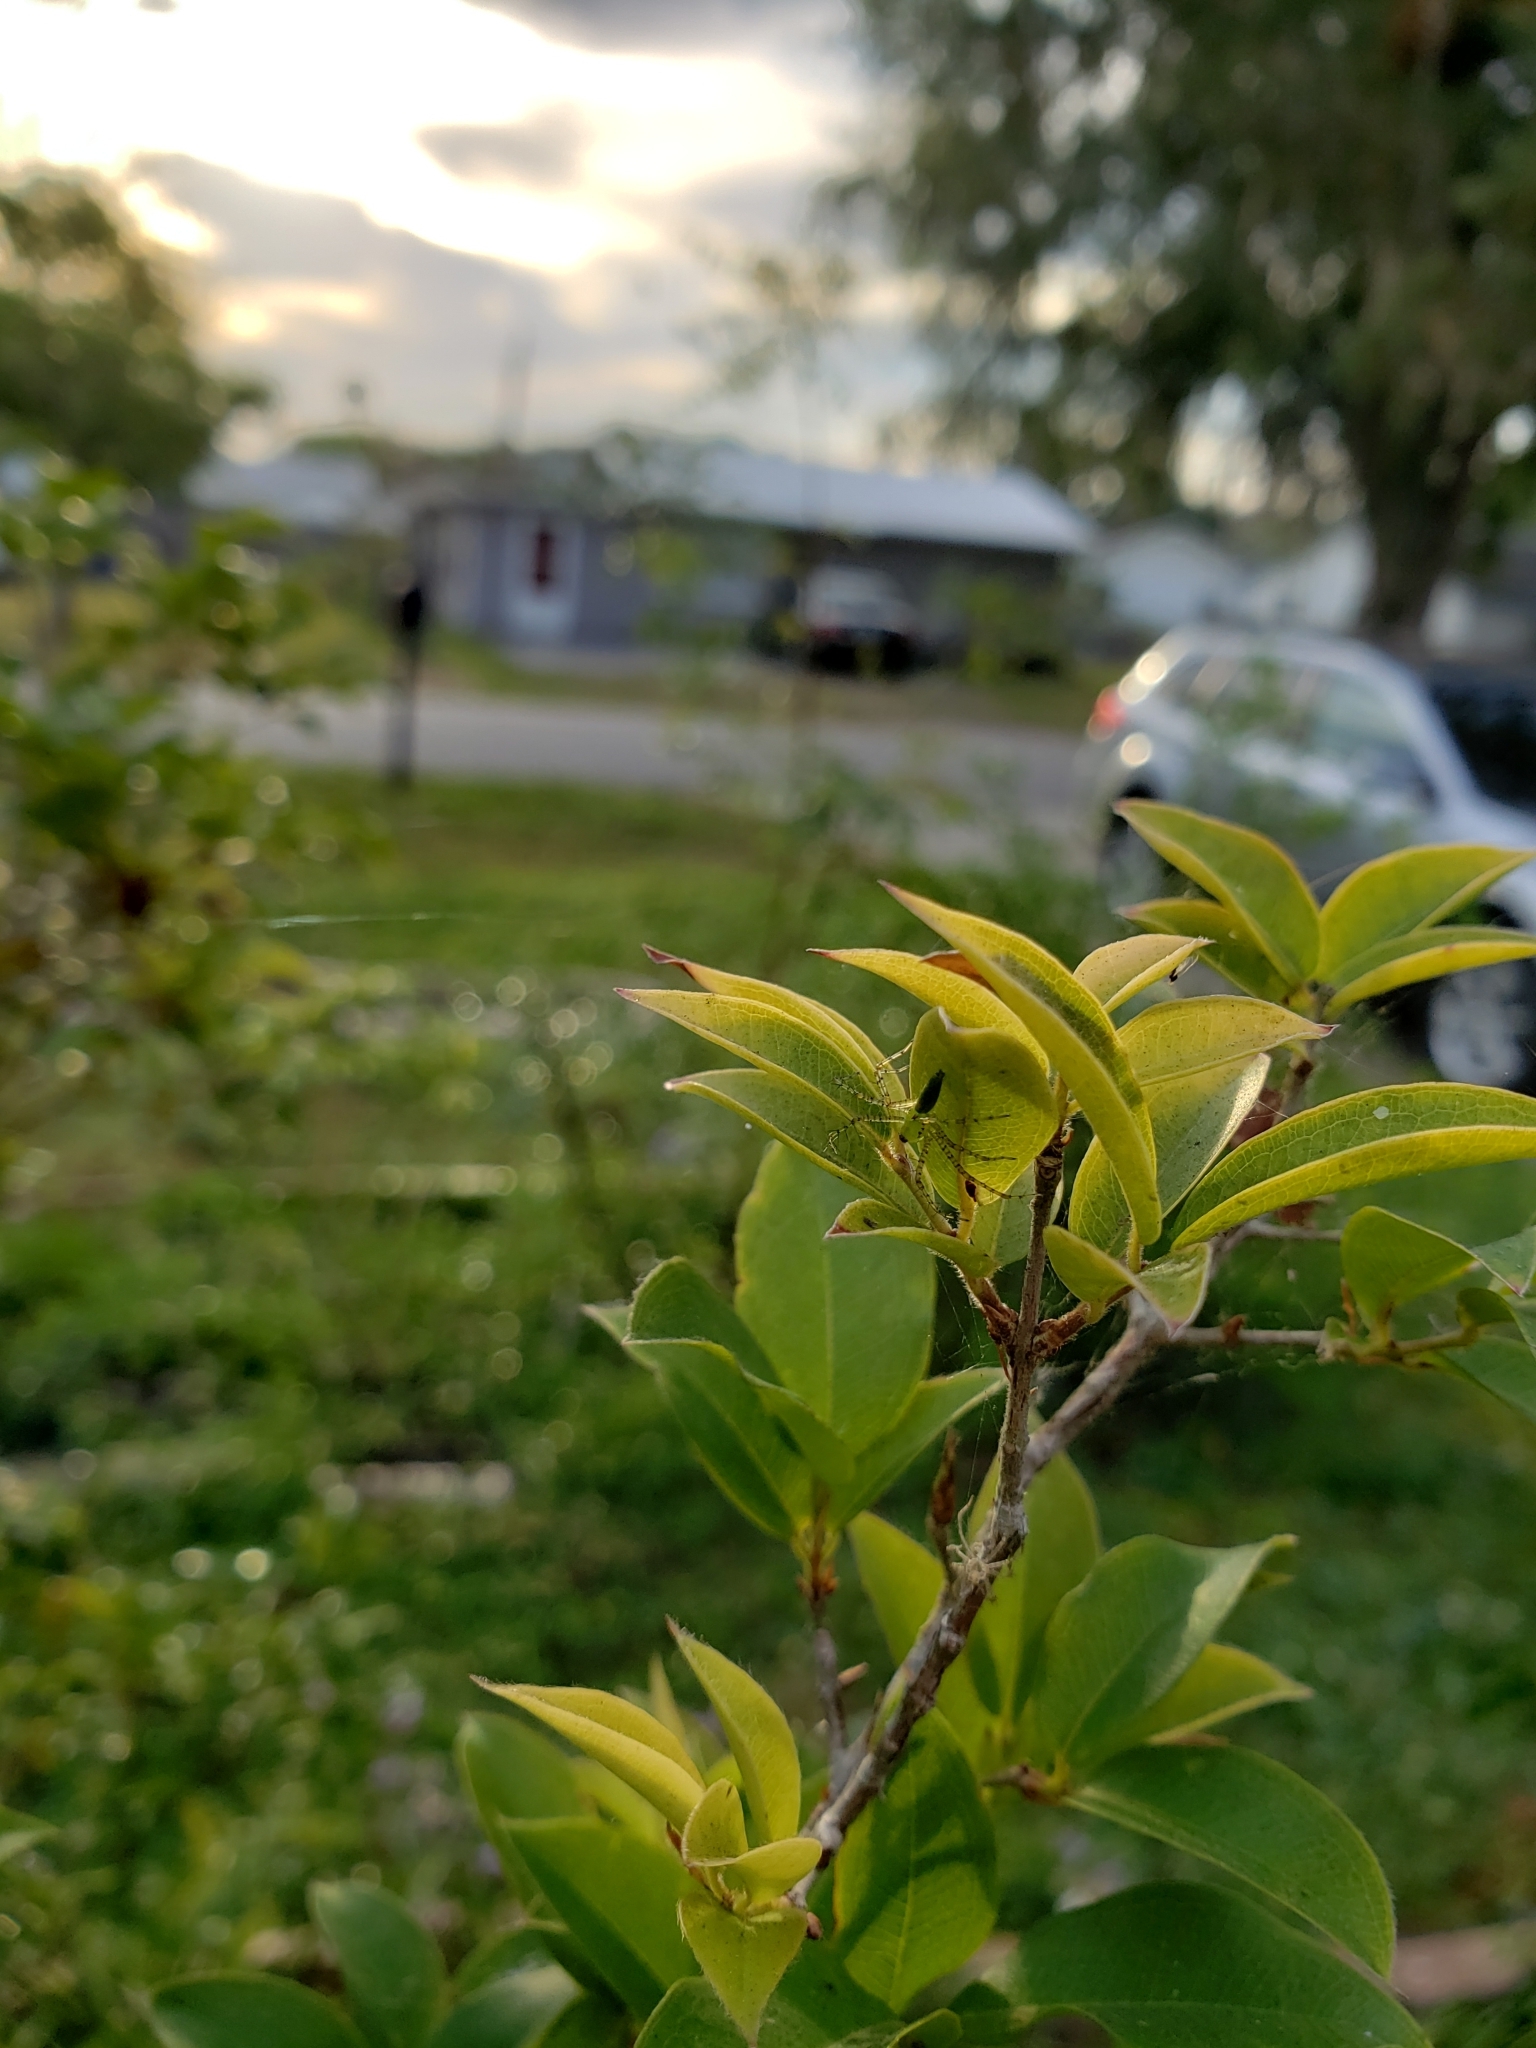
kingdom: Animalia
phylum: Arthropoda
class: Arachnida
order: Araneae
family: Oxyopidae
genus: Peucetia
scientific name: Peucetia viridans
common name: Lynx spiders
